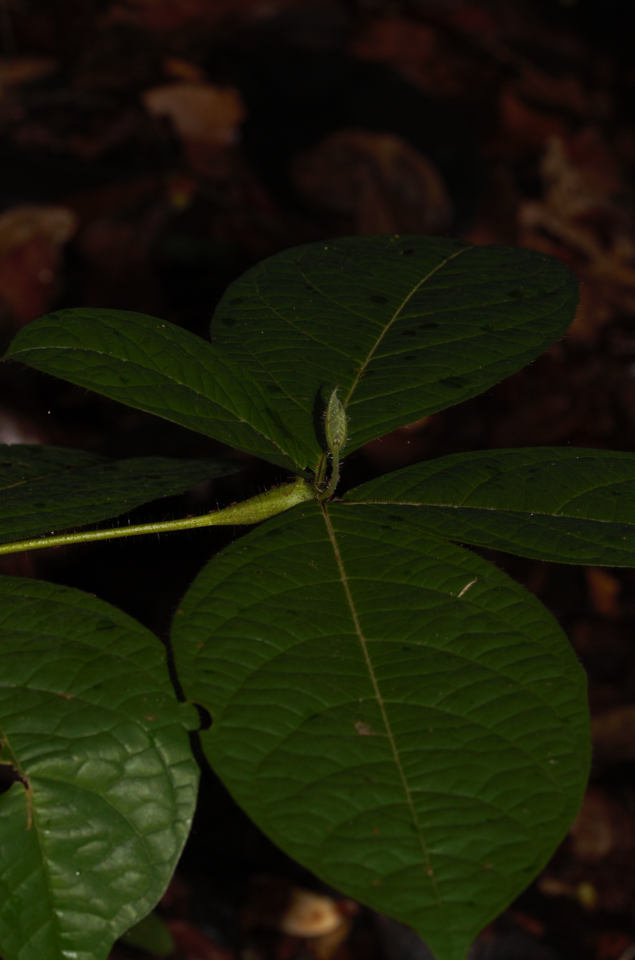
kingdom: Plantae
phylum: Tracheophyta
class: Magnoliopsida
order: Boraginales
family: Cordiaceae
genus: Cordia
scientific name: Cordia nodosa
